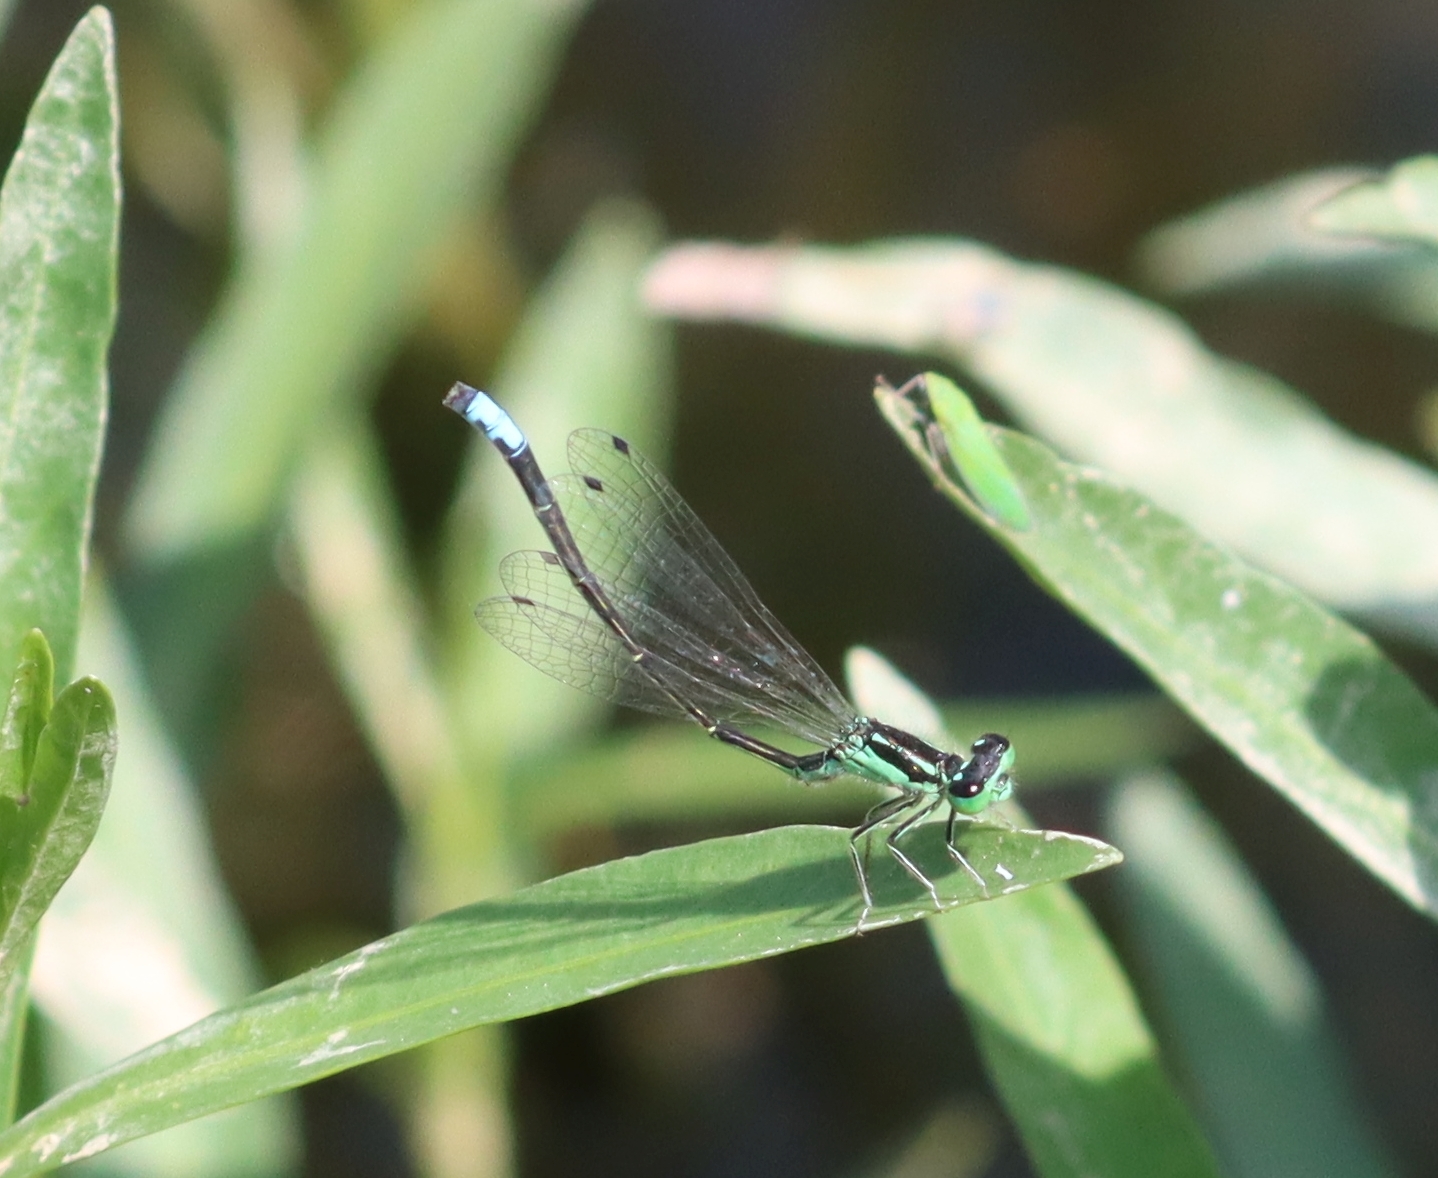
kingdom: Animalia
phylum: Arthropoda
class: Insecta
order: Odonata
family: Coenagrionidae
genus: Ischnura
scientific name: Ischnura verticalis
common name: Eastern forktail
